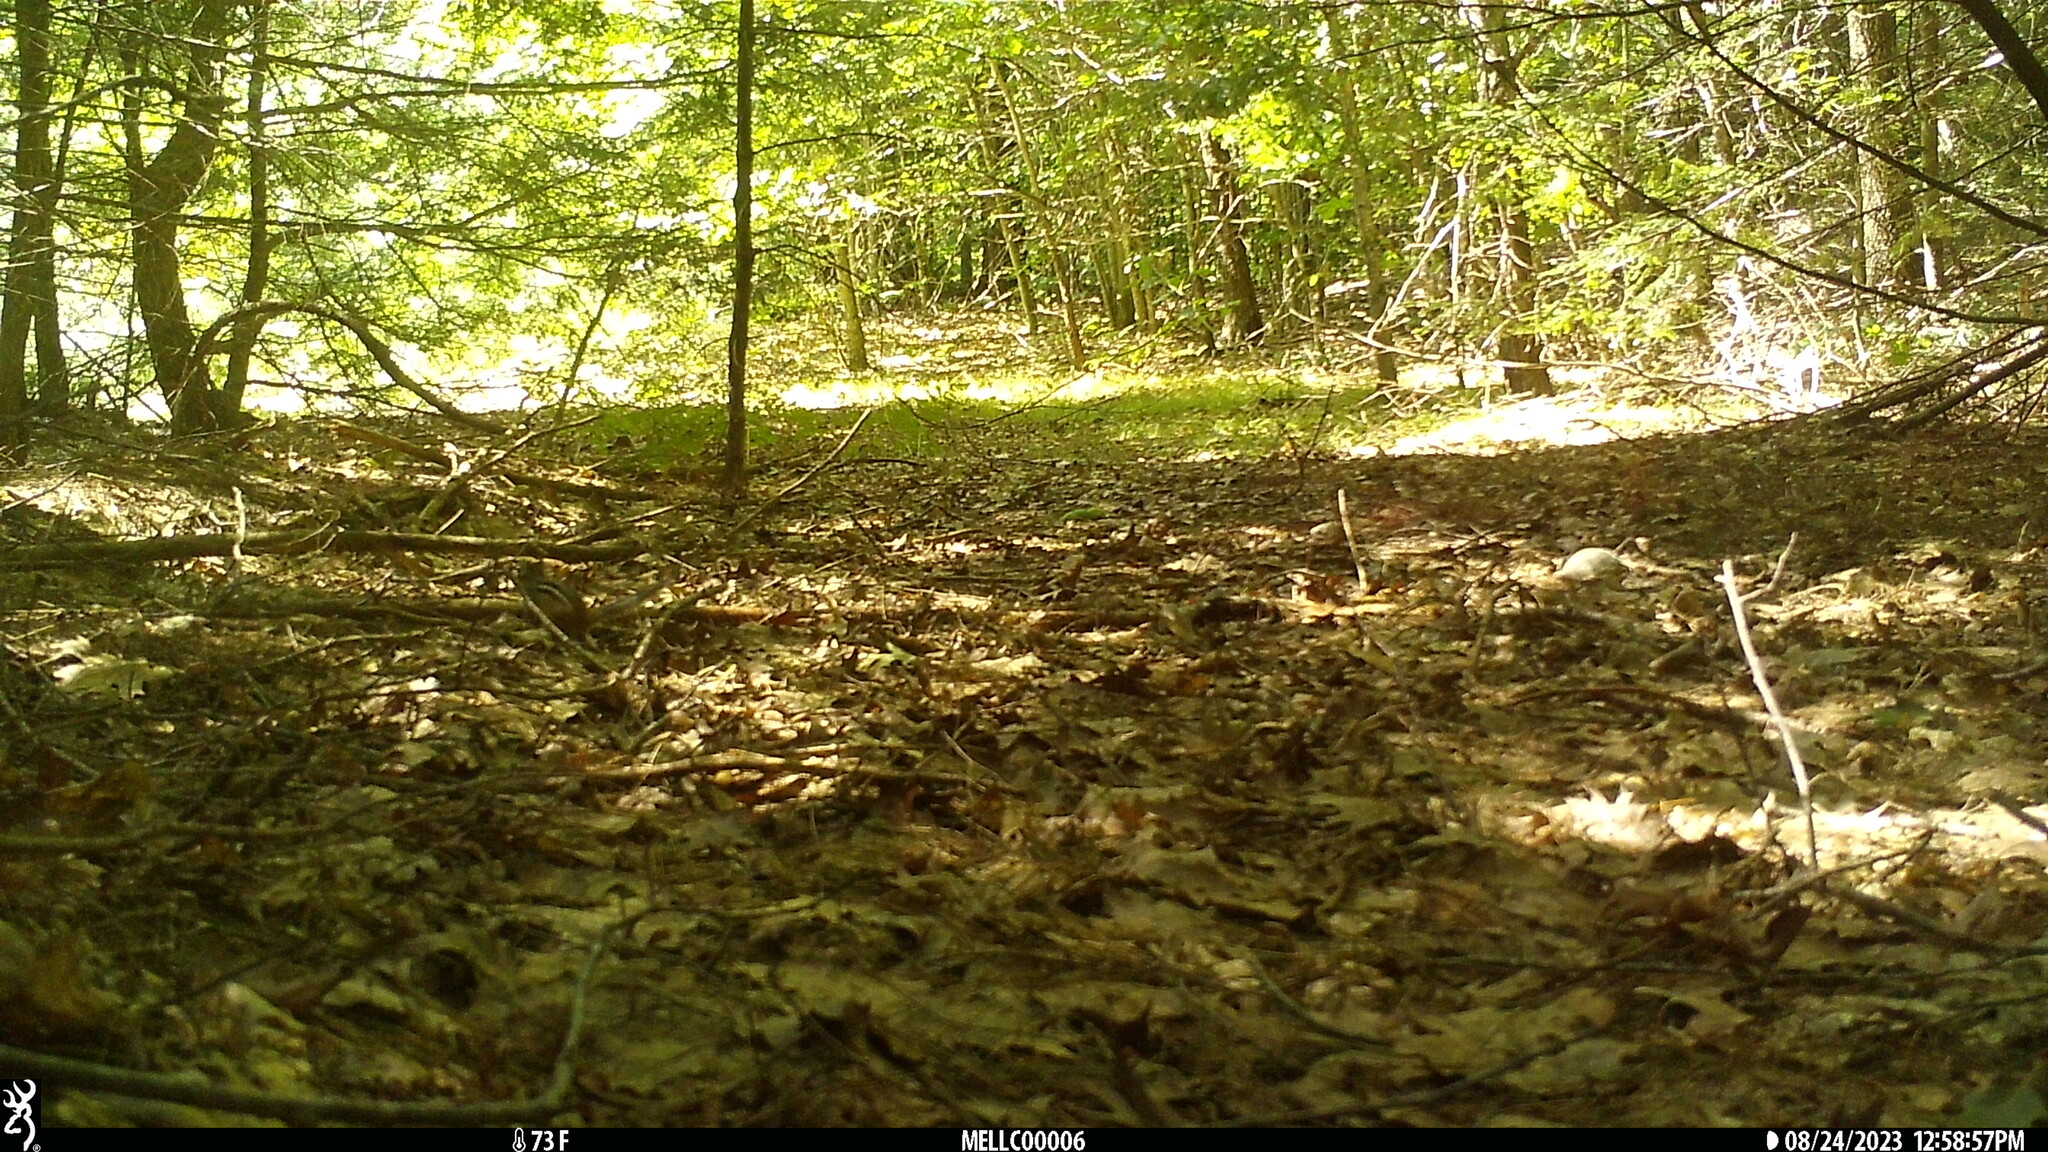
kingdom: Animalia
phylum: Chordata
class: Mammalia
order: Rodentia
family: Sciuridae
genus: Tamias
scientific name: Tamias striatus
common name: Eastern chipmunk
